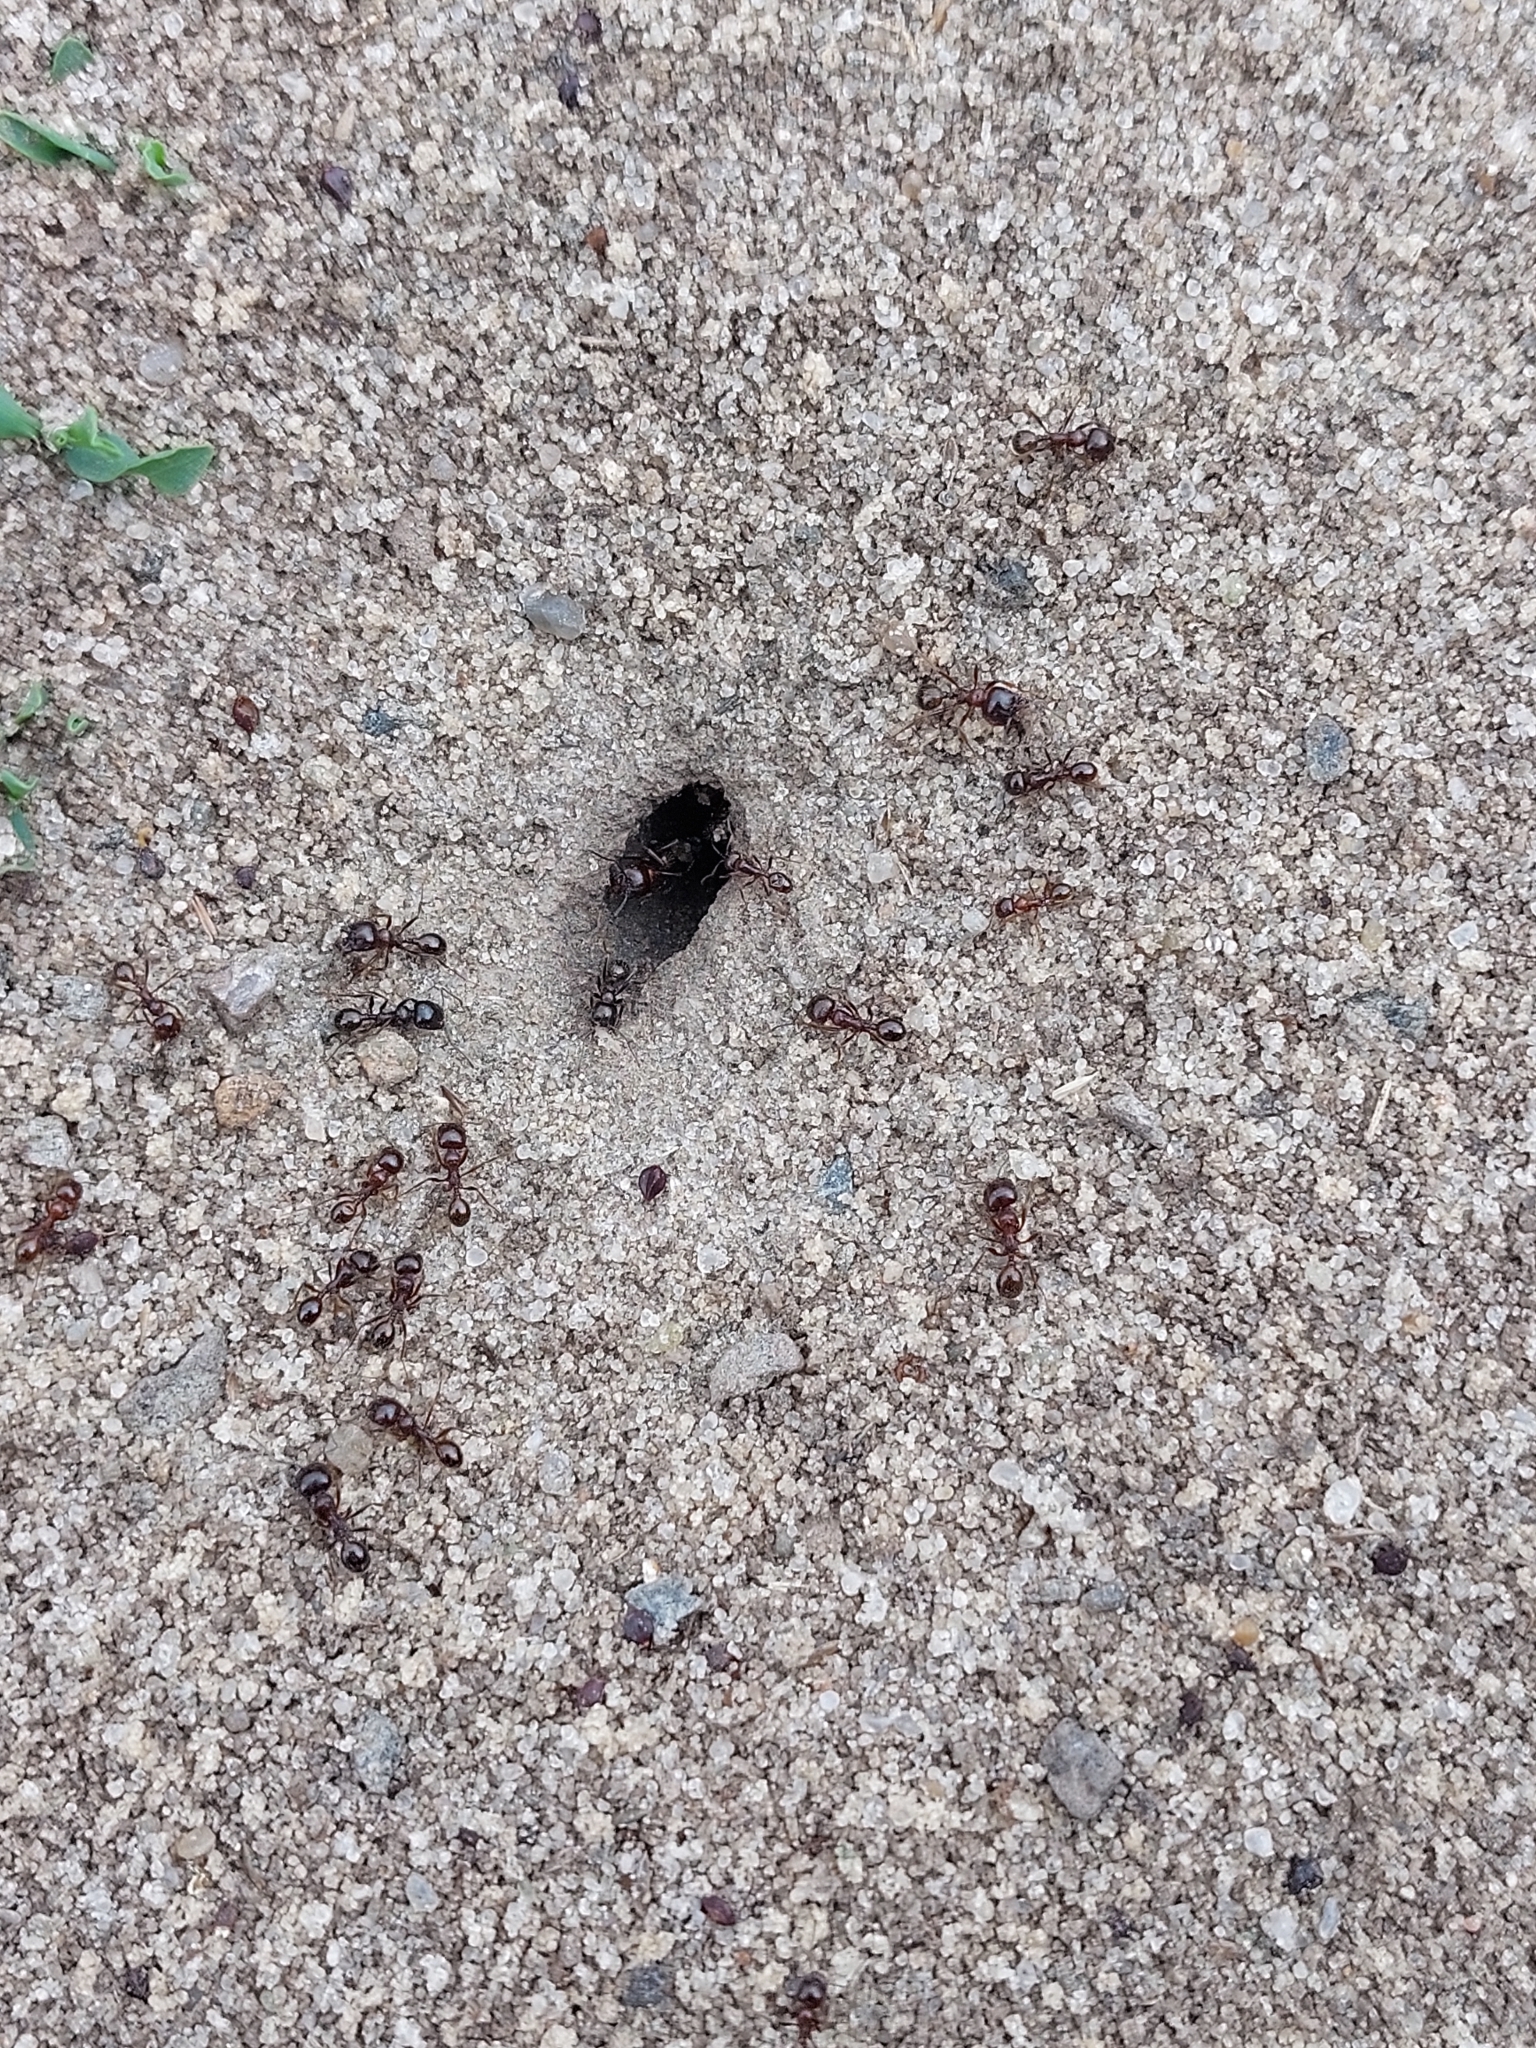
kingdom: Animalia
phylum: Arthropoda
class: Insecta
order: Hymenoptera
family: Formicidae
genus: Messor
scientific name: Messor structor
